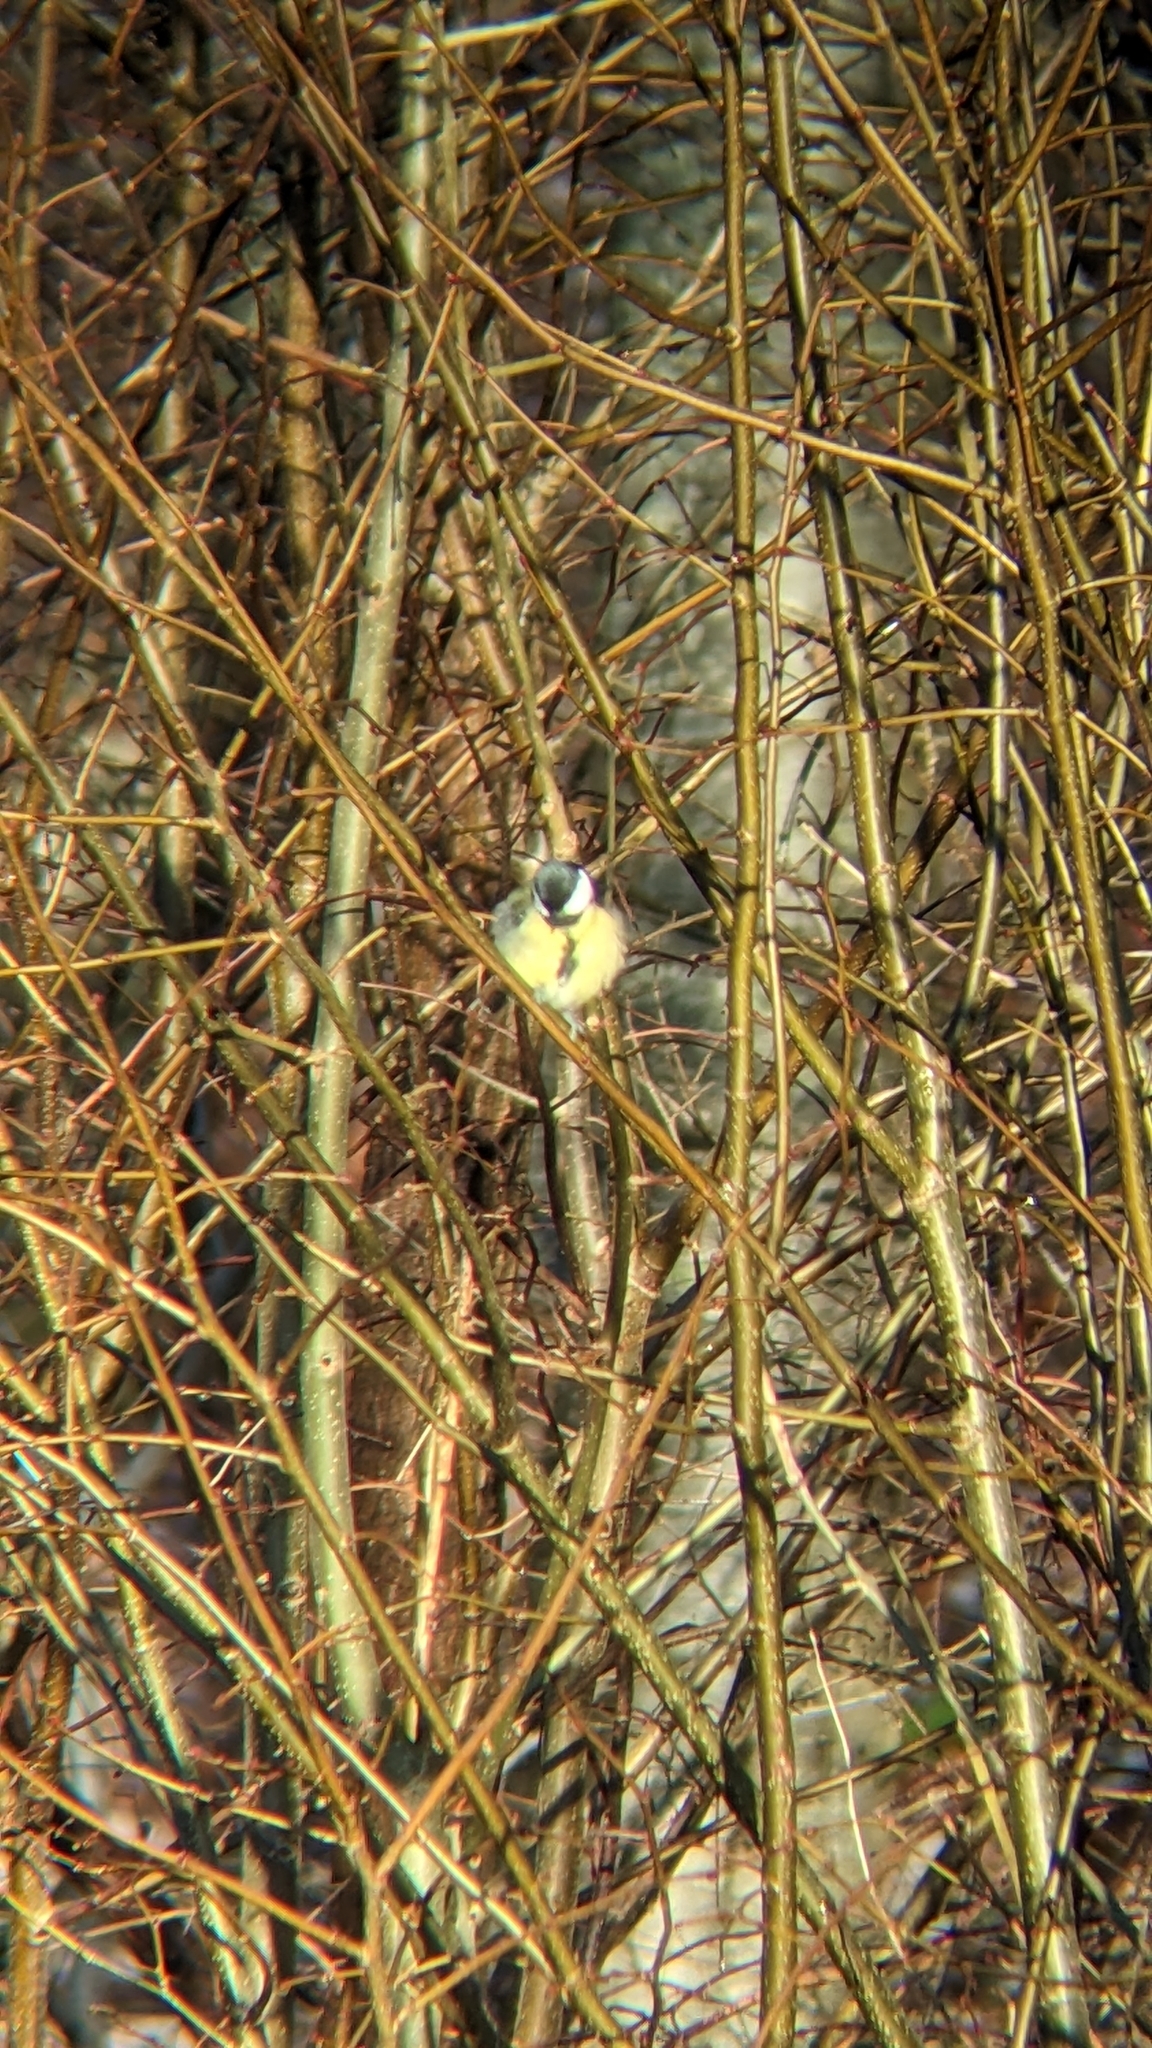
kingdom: Animalia
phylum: Chordata
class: Aves
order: Passeriformes
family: Paridae
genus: Parus
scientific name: Parus major
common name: Great tit
